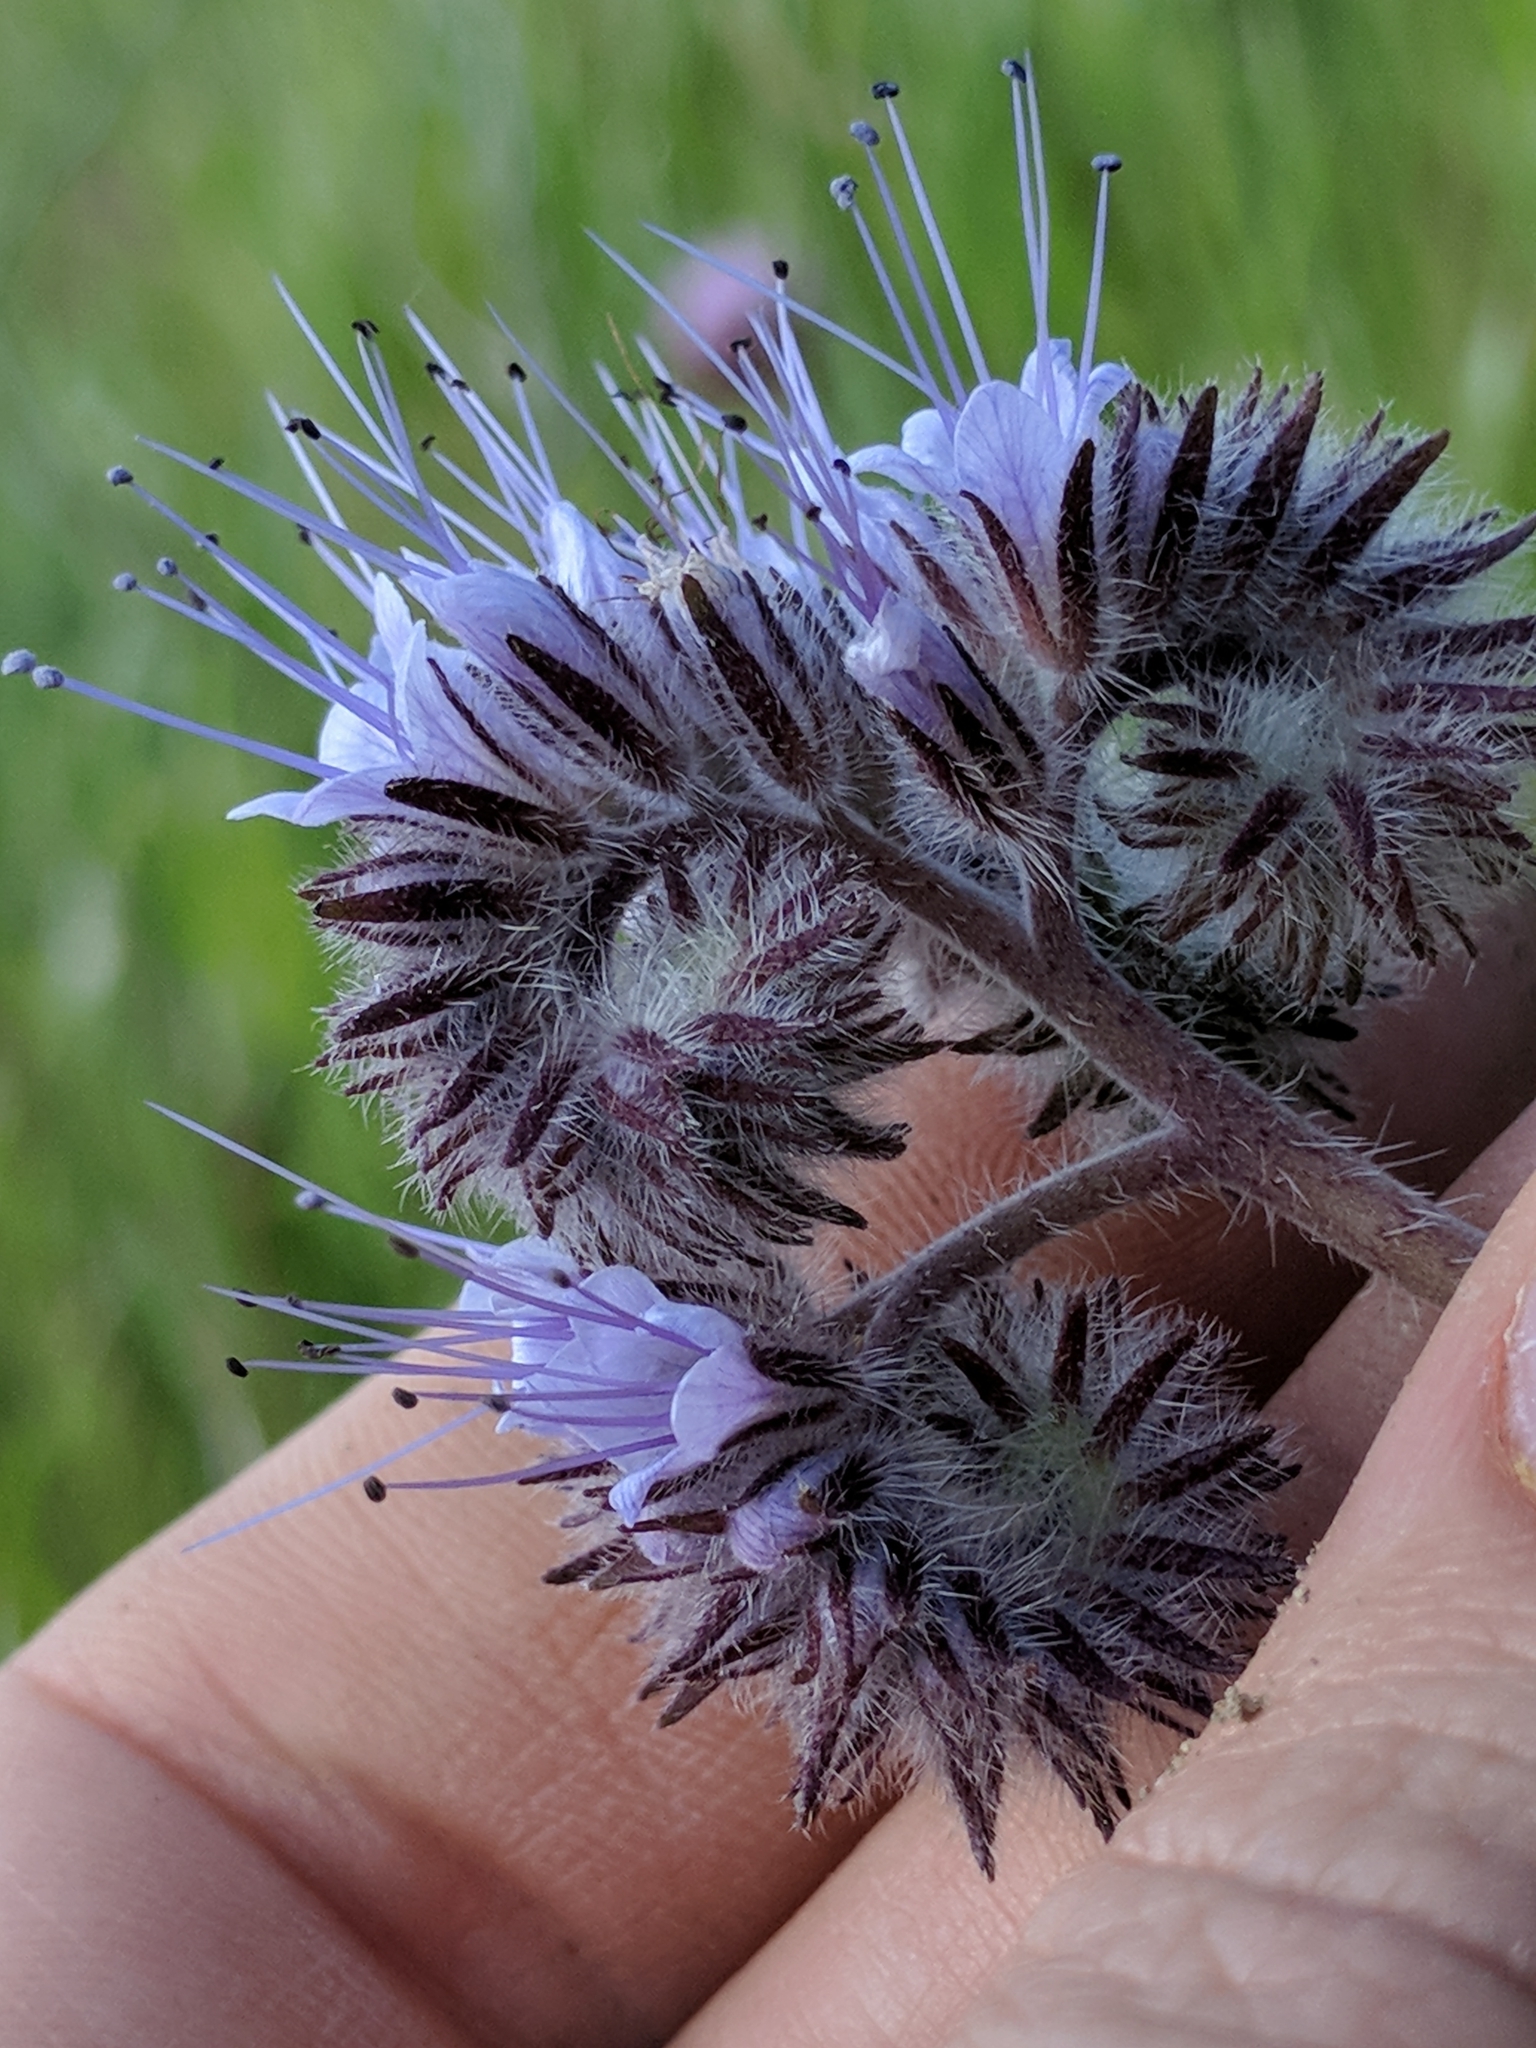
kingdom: Plantae
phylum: Tracheophyta
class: Magnoliopsida
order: Boraginales
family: Hydrophyllaceae
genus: Phacelia
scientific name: Phacelia tanacetifolia
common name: Phacelia
